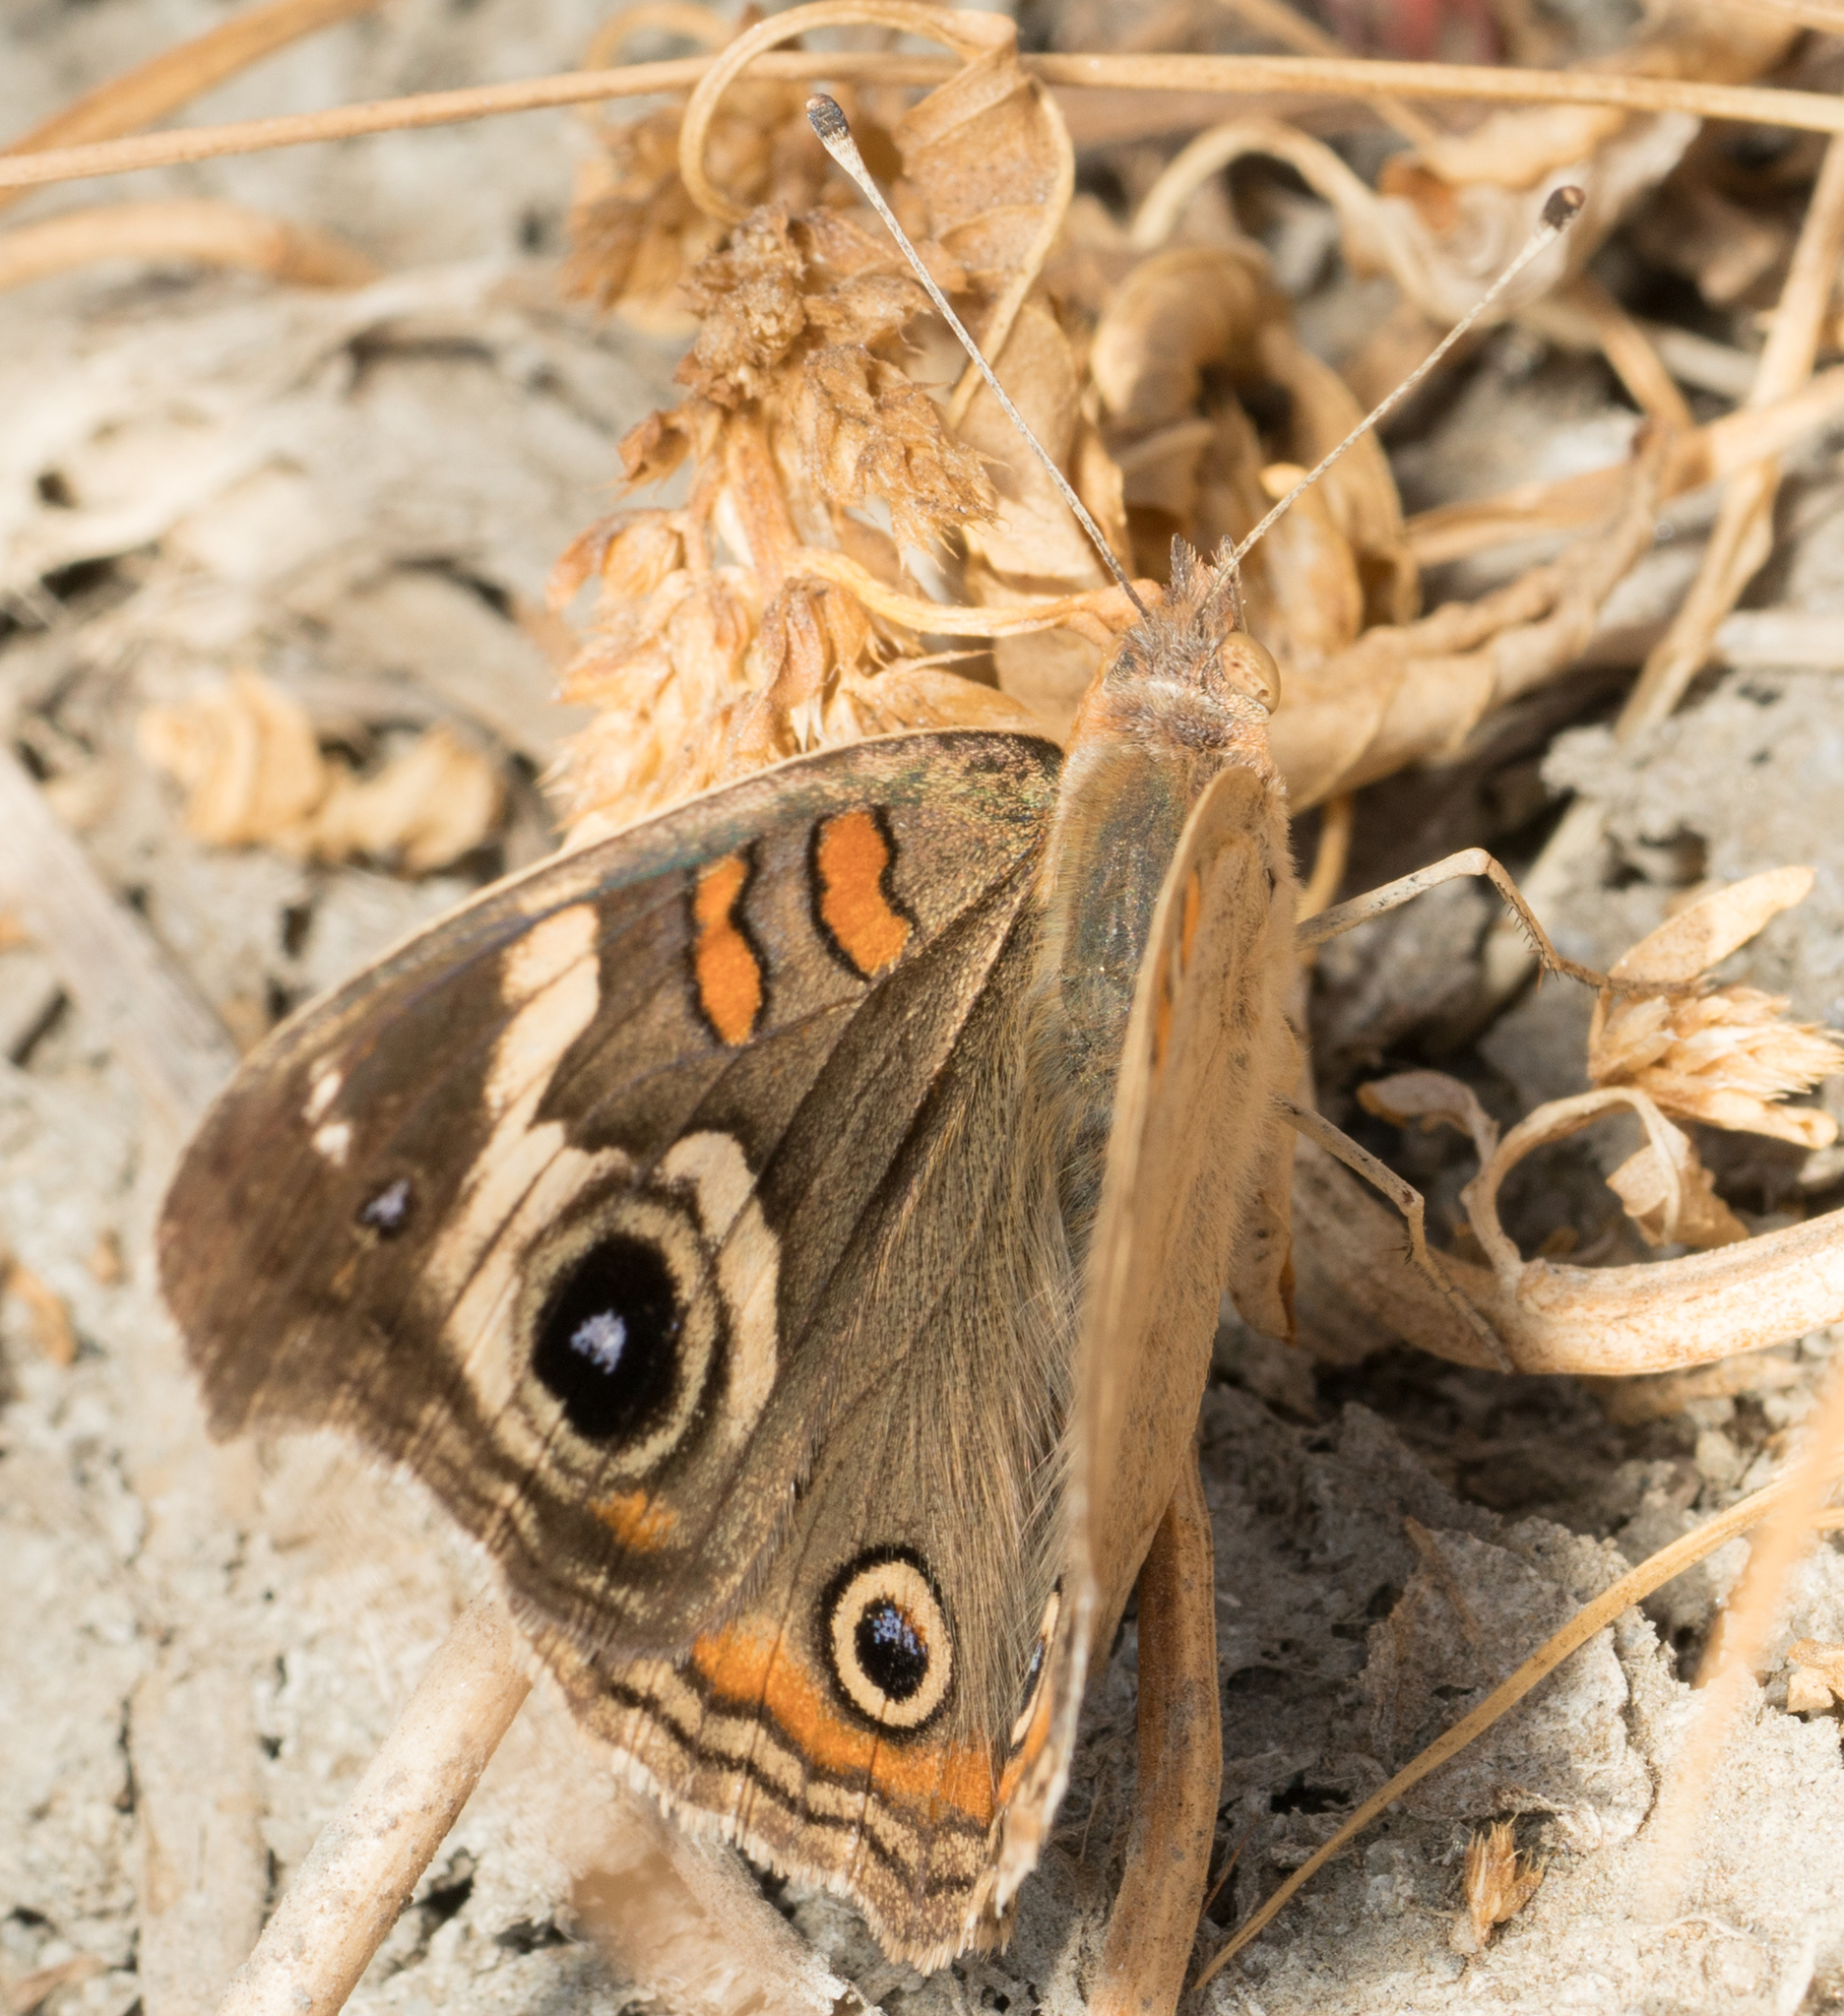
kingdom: Animalia
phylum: Arthropoda
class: Insecta
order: Lepidoptera
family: Nymphalidae
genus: Junonia
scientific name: Junonia grisea
